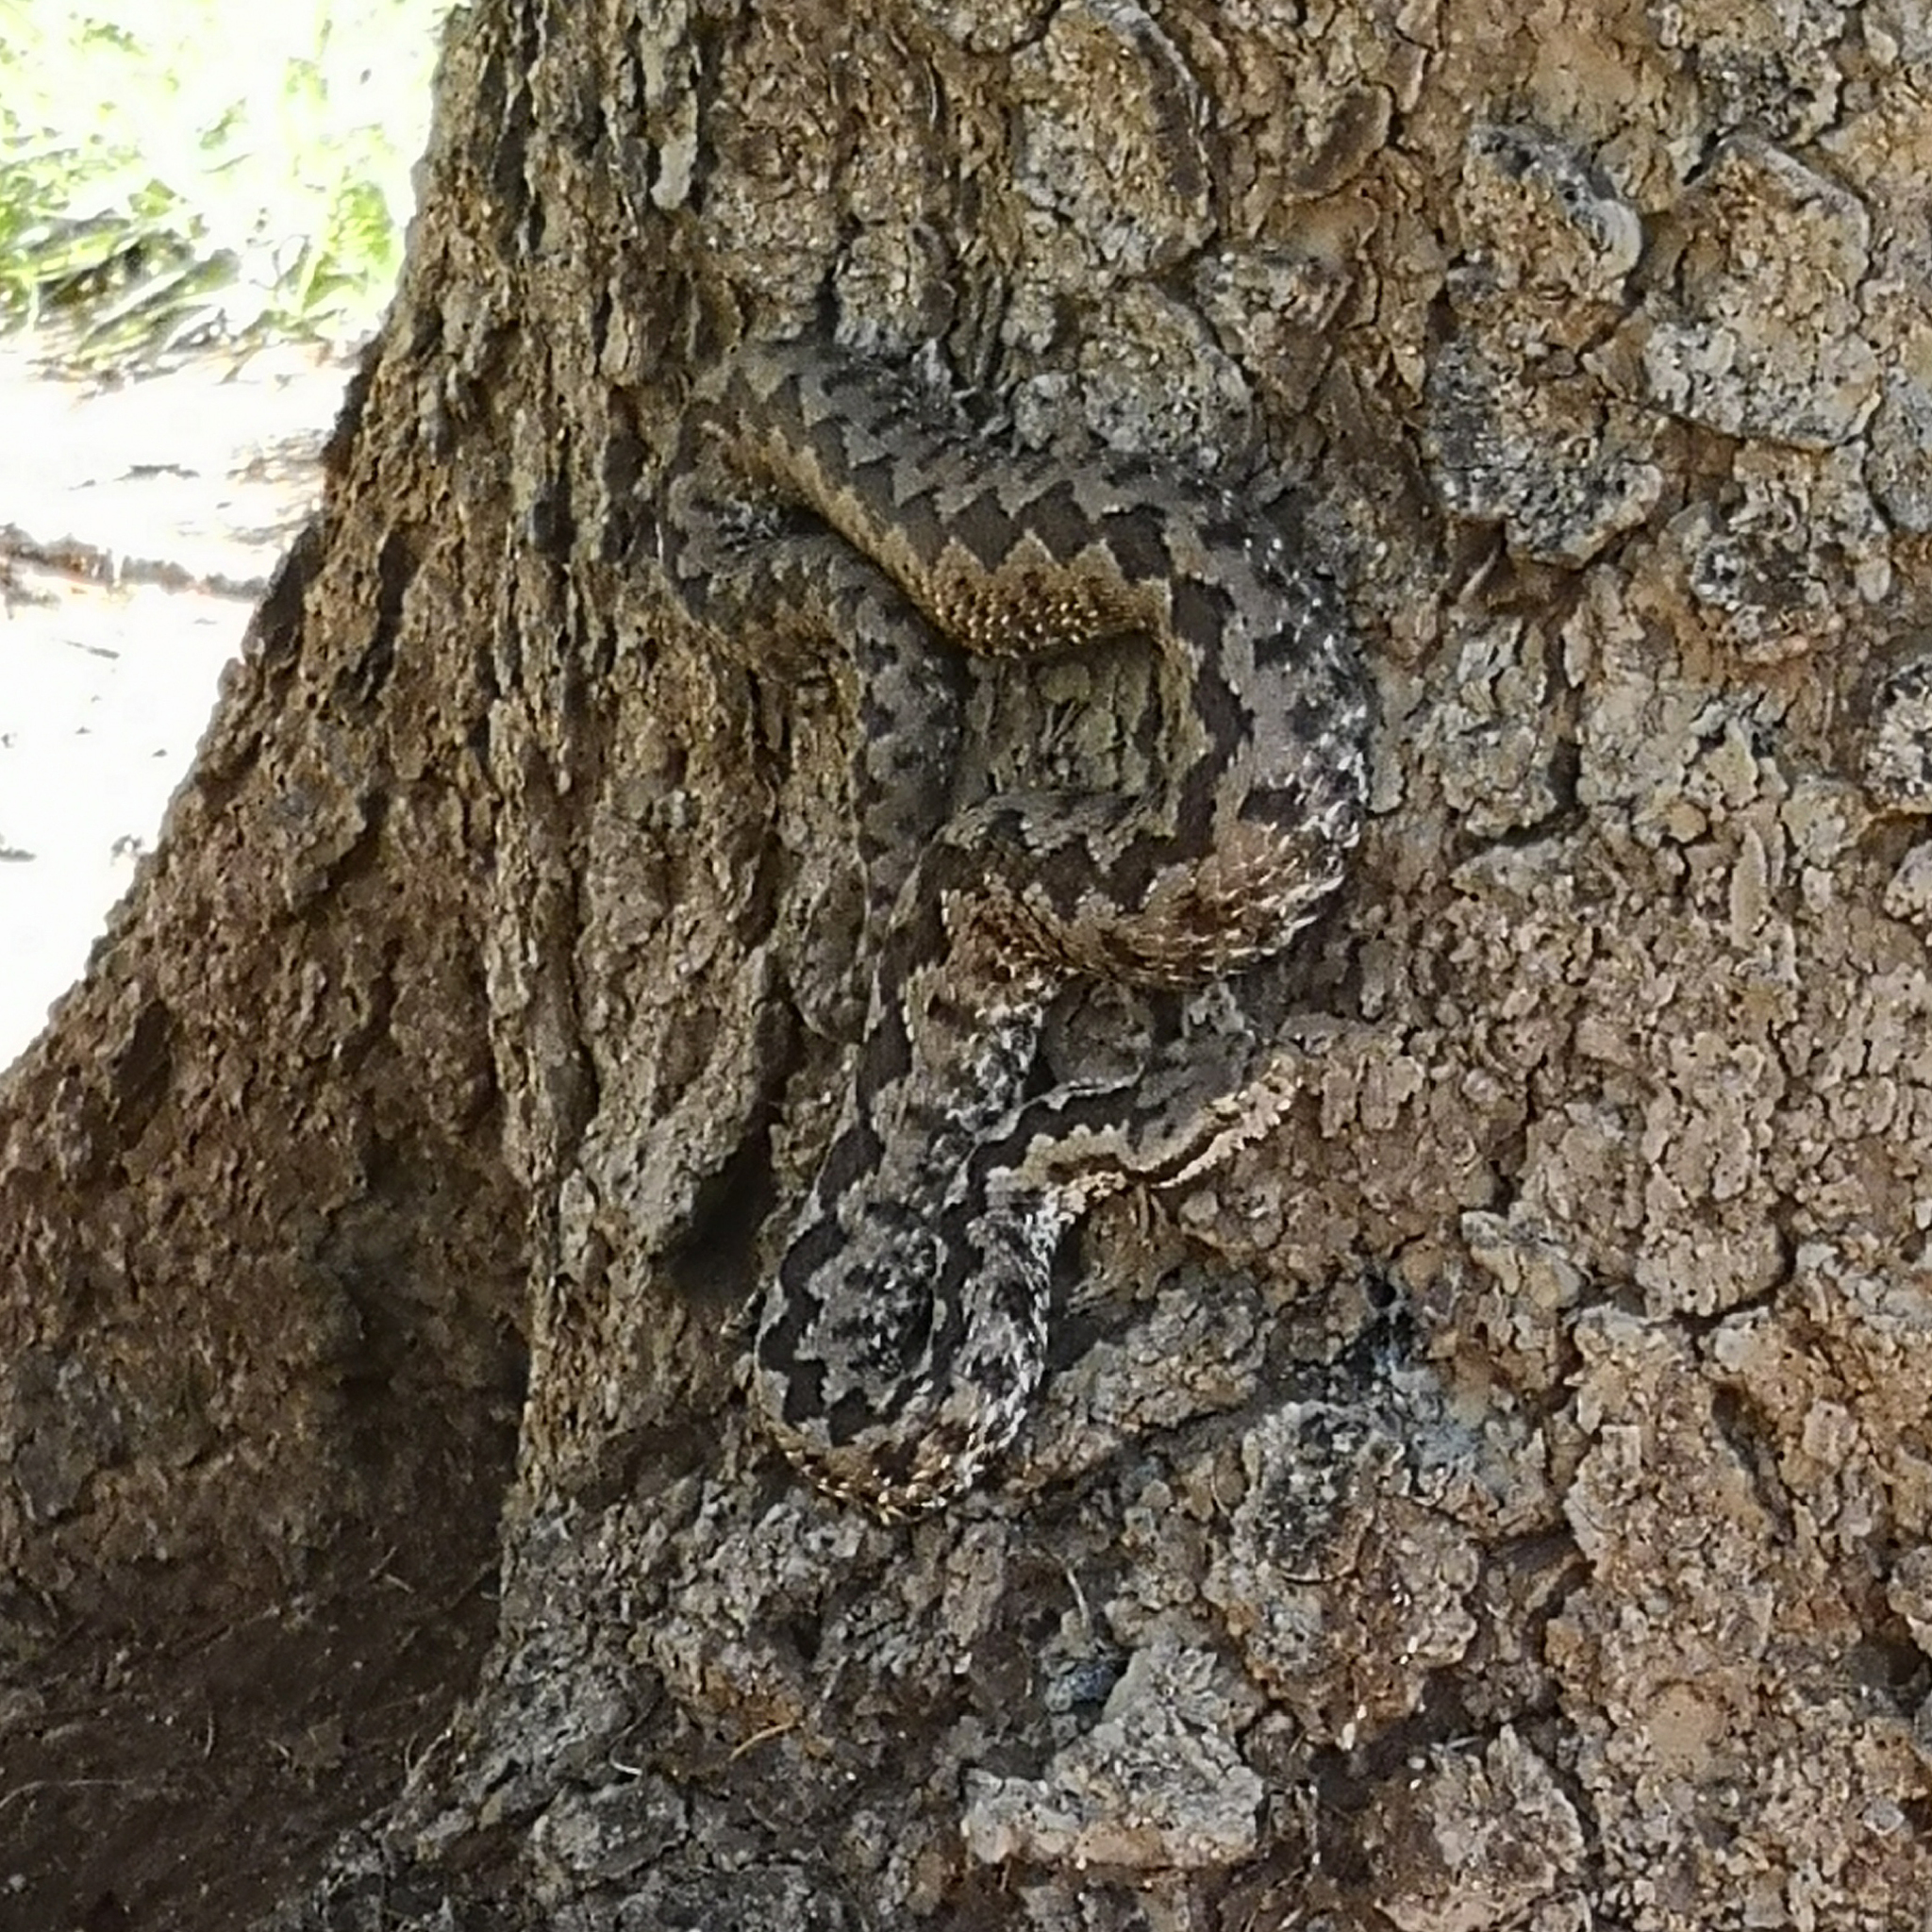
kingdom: Animalia
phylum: Chordata
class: Squamata
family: Viperidae
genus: Vipera
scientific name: Vipera latastei
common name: Lataste's viper
